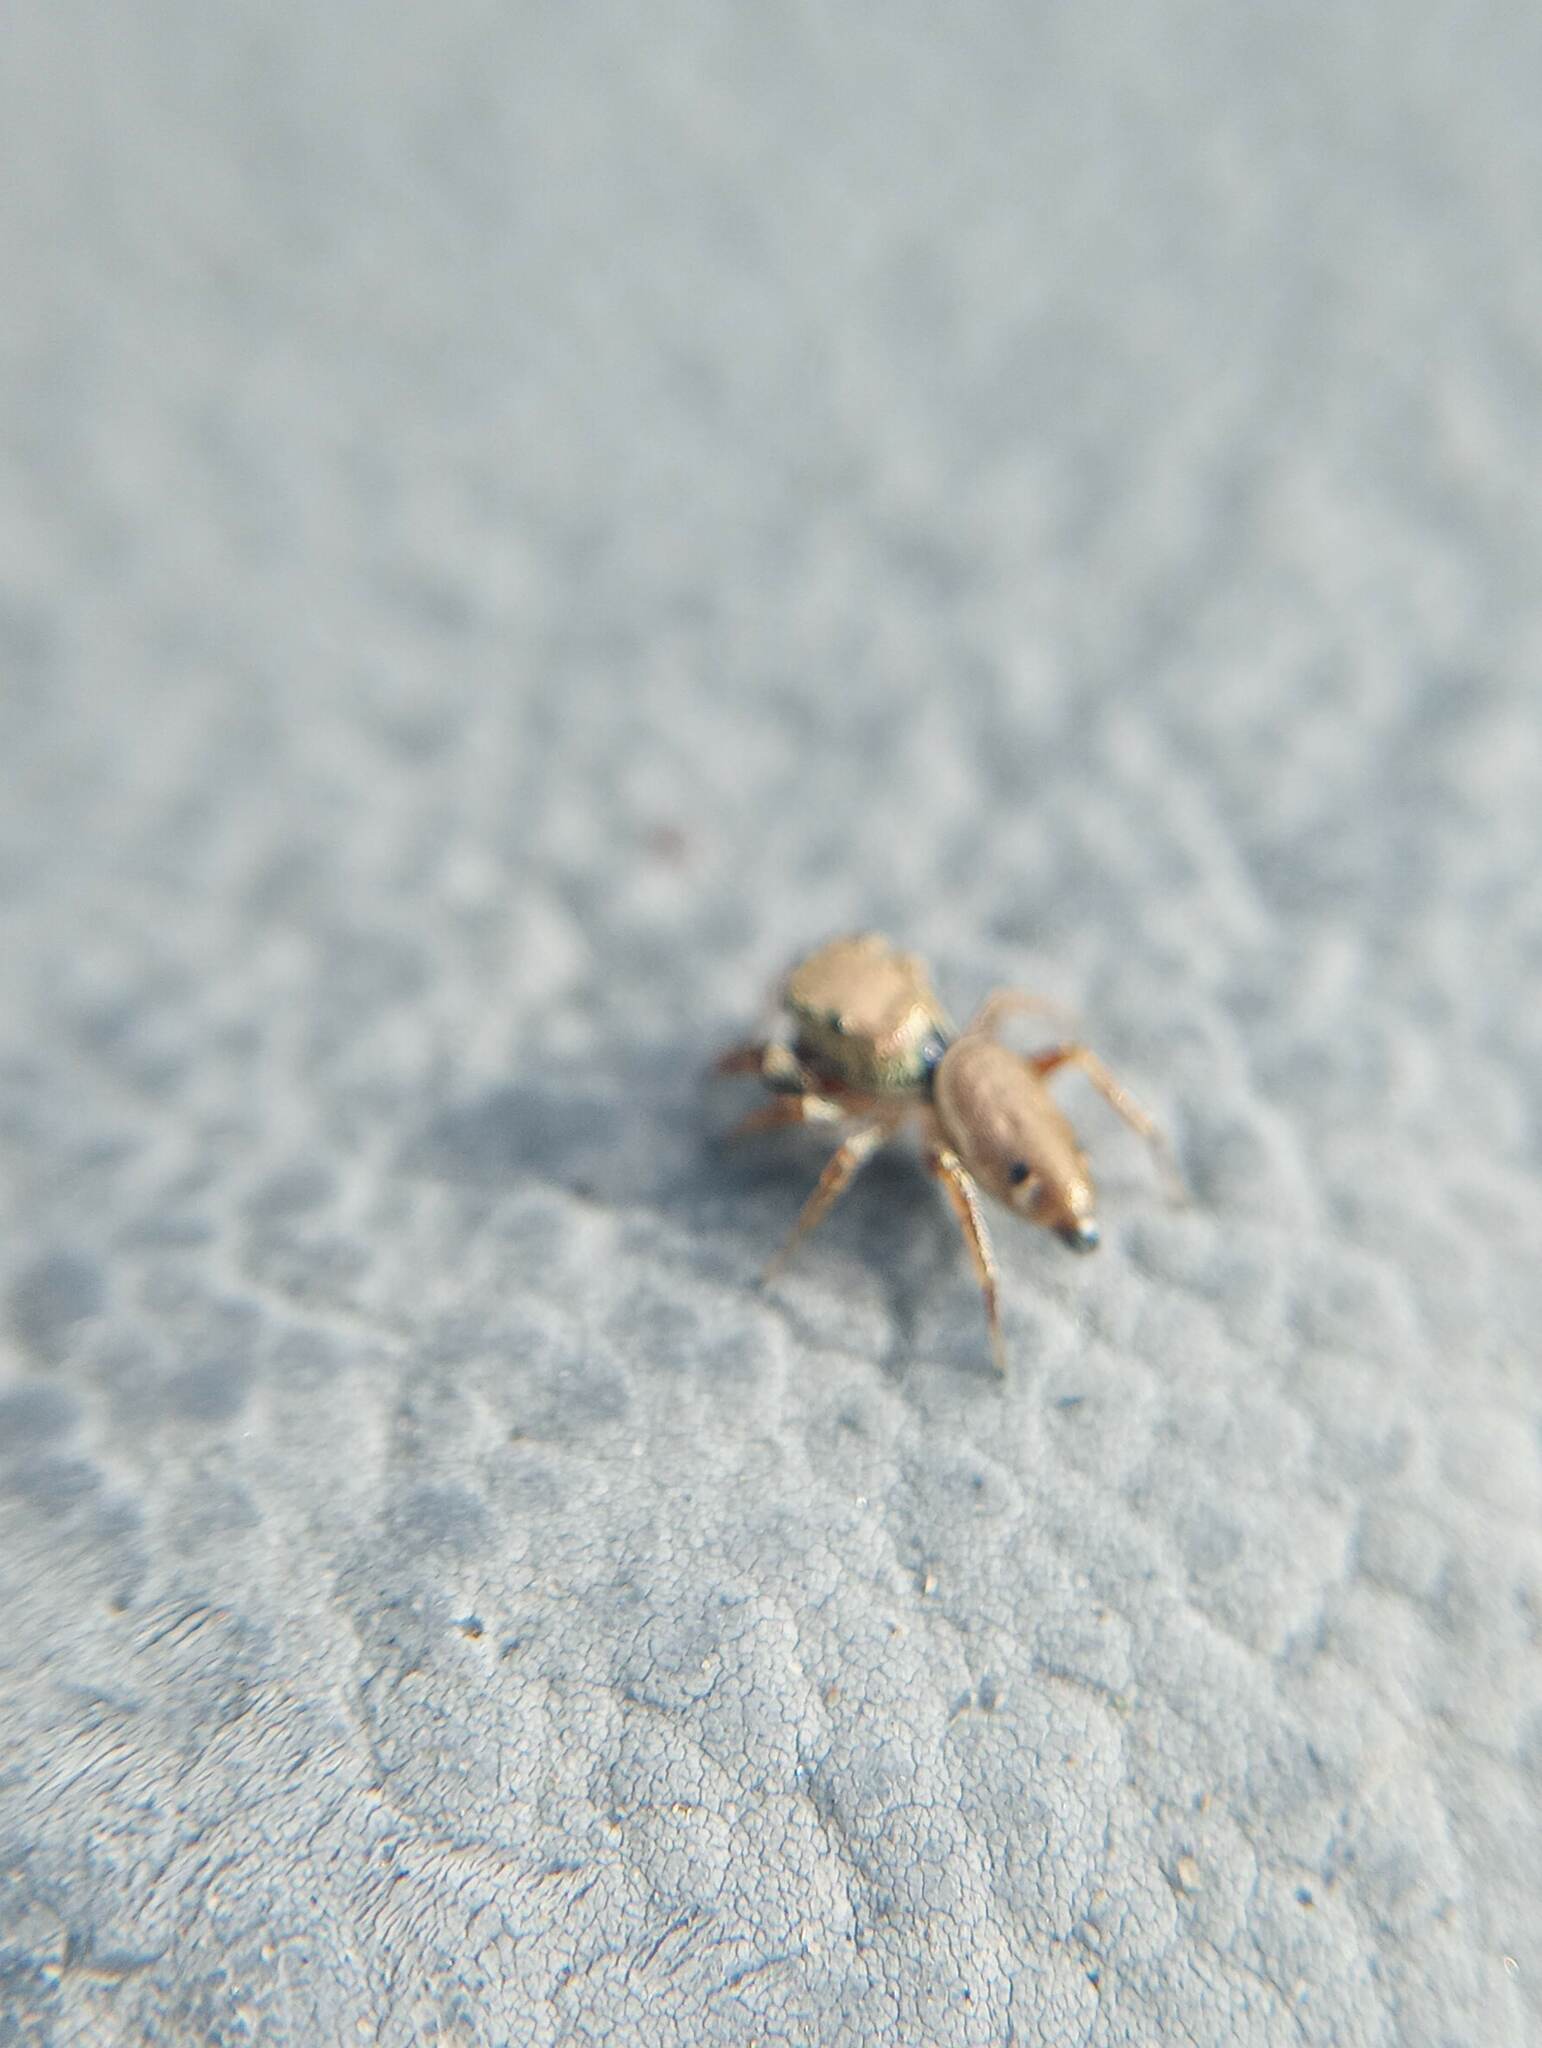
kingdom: Animalia
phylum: Arthropoda
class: Arachnida
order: Araneae
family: Salticidae
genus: Sassacus
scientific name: Sassacus vitis
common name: Jumping spiders
